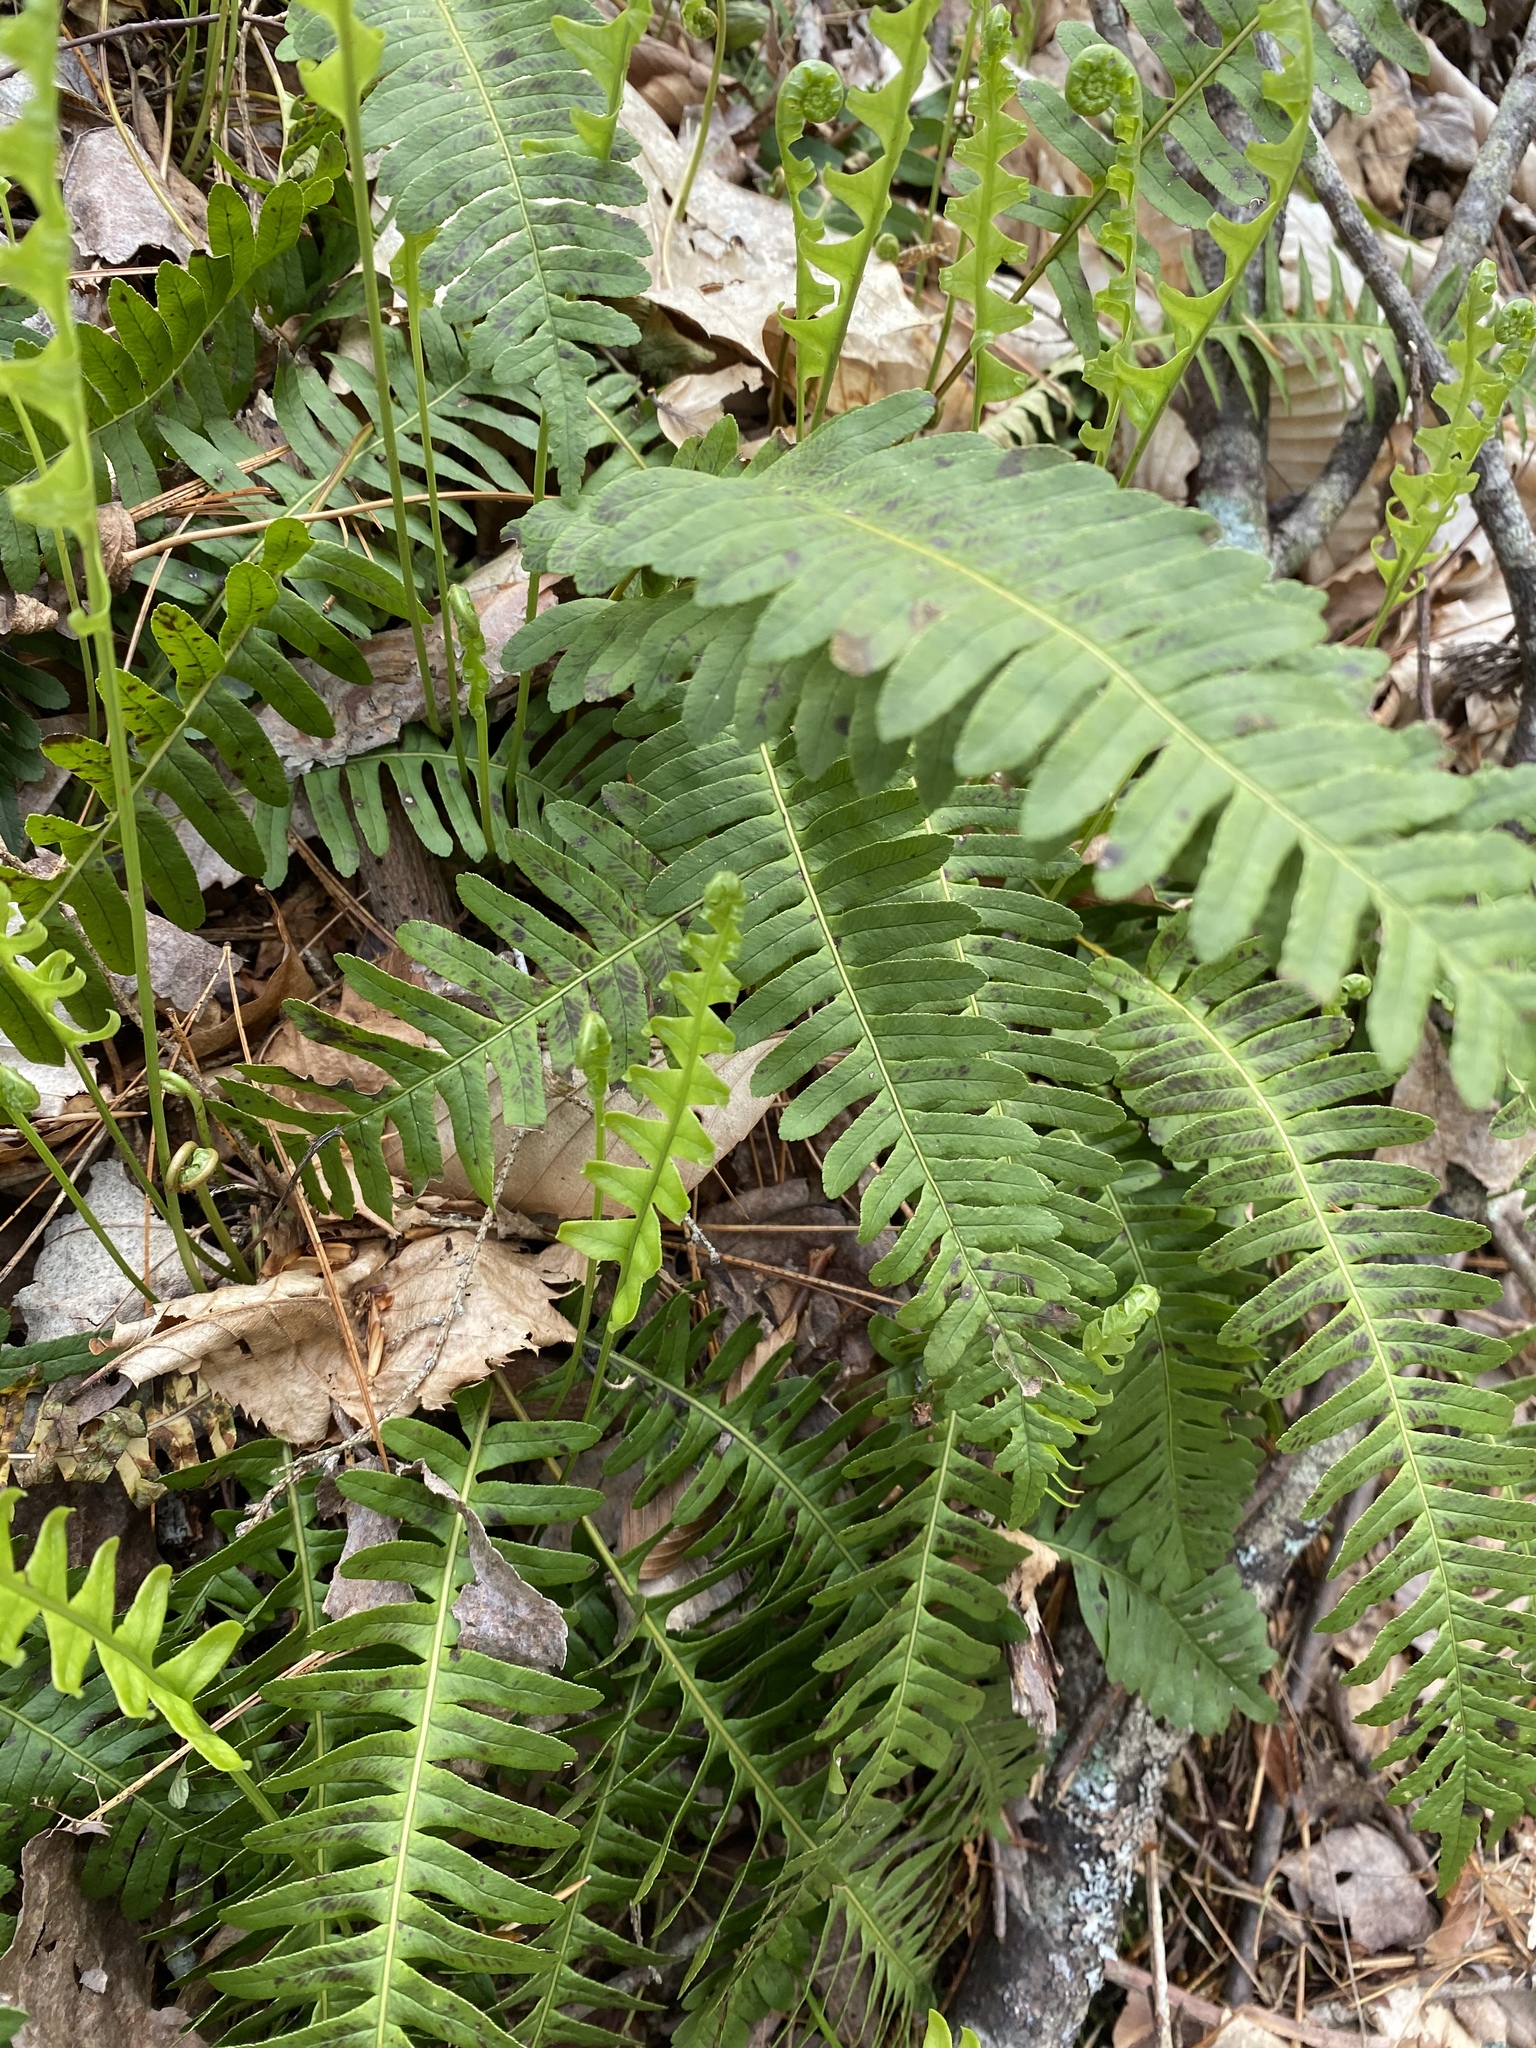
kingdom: Plantae
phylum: Tracheophyta
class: Polypodiopsida
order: Polypodiales
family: Polypodiaceae
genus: Polypodium
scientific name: Polypodium virginianum
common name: American wall fern
